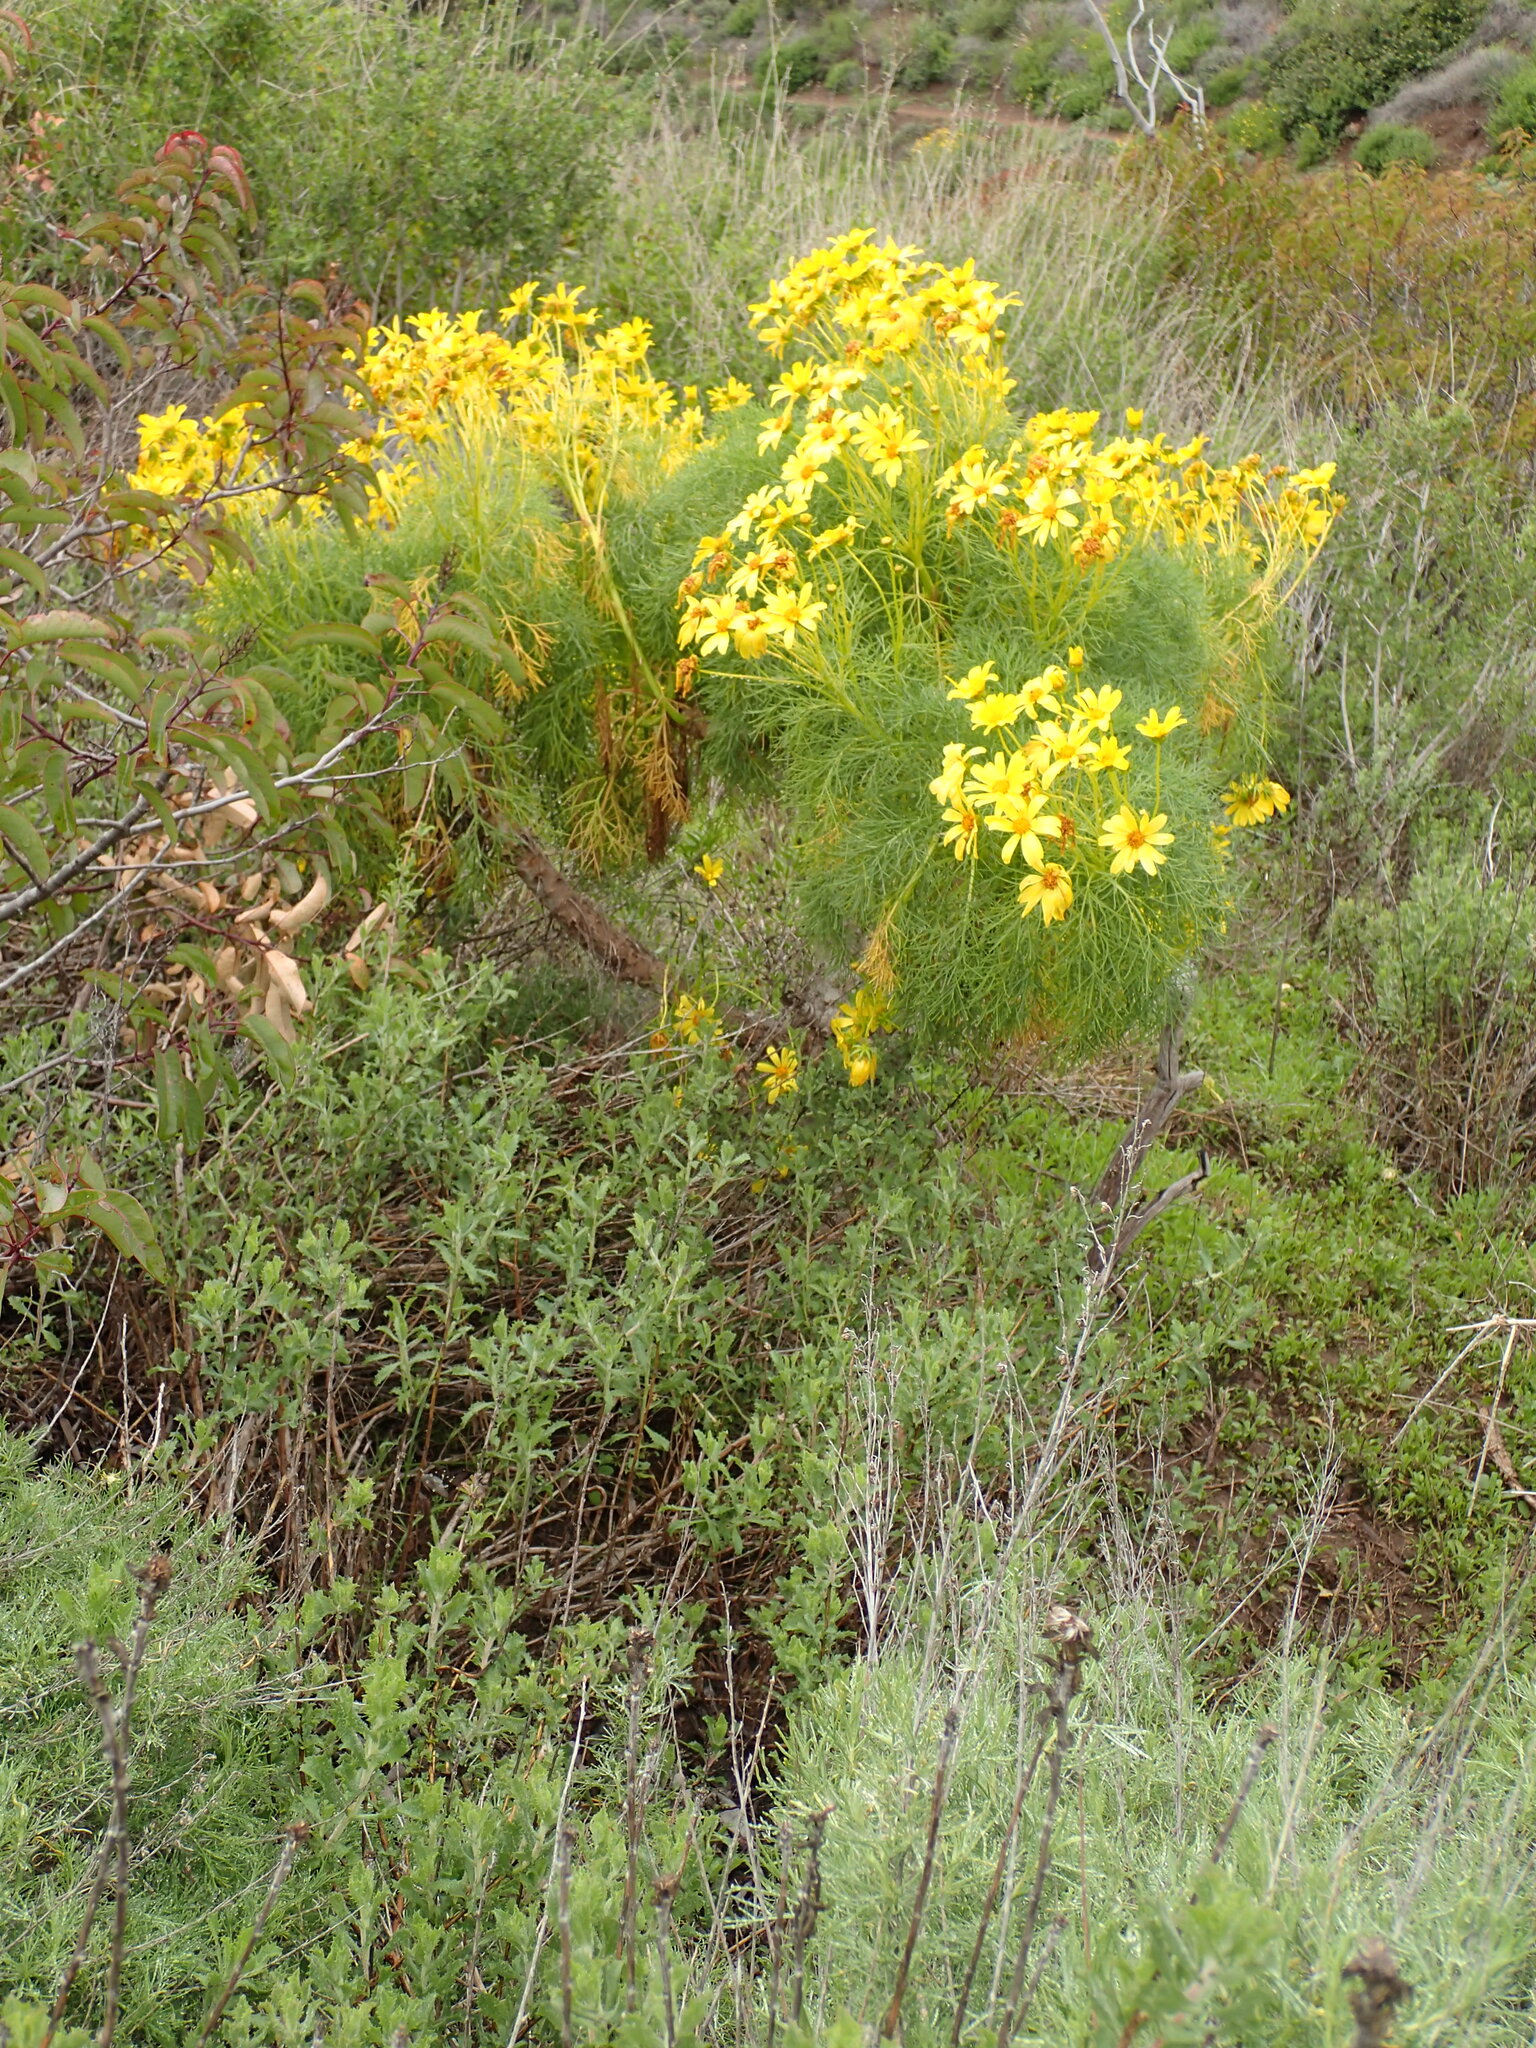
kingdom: Plantae
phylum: Tracheophyta
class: Magnoliopsida
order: Asterales
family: Asteraceae
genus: Coreopsis
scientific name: Coreopsis gigantea
